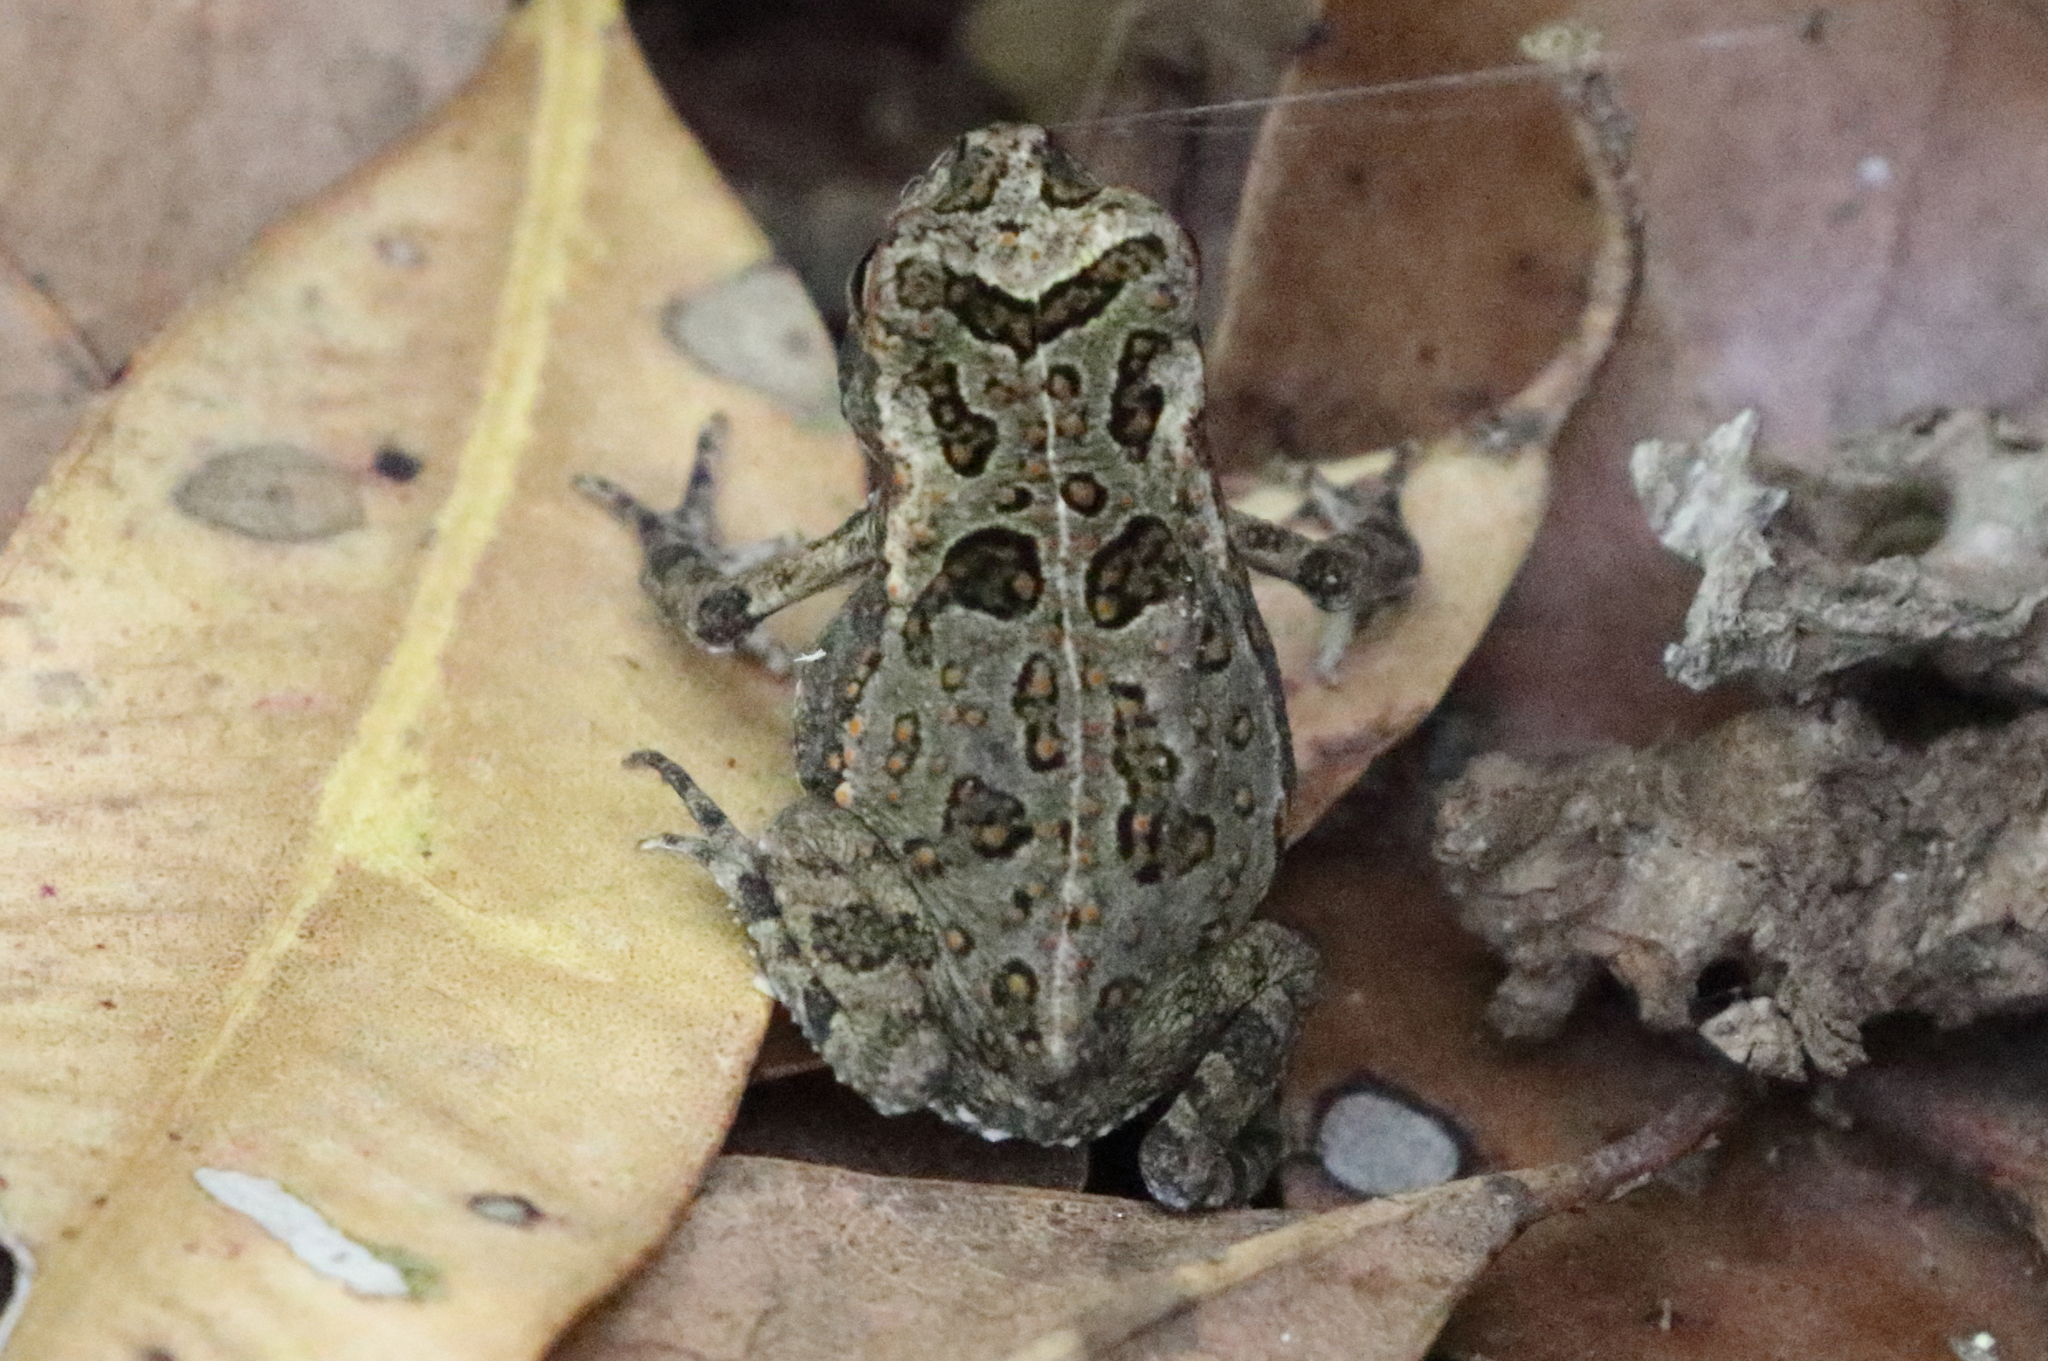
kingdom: Animalia
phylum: Chordata
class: Amphibia
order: Anura
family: Bufonidae
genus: Rhinella
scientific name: Rhinella marina
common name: Cane toad
